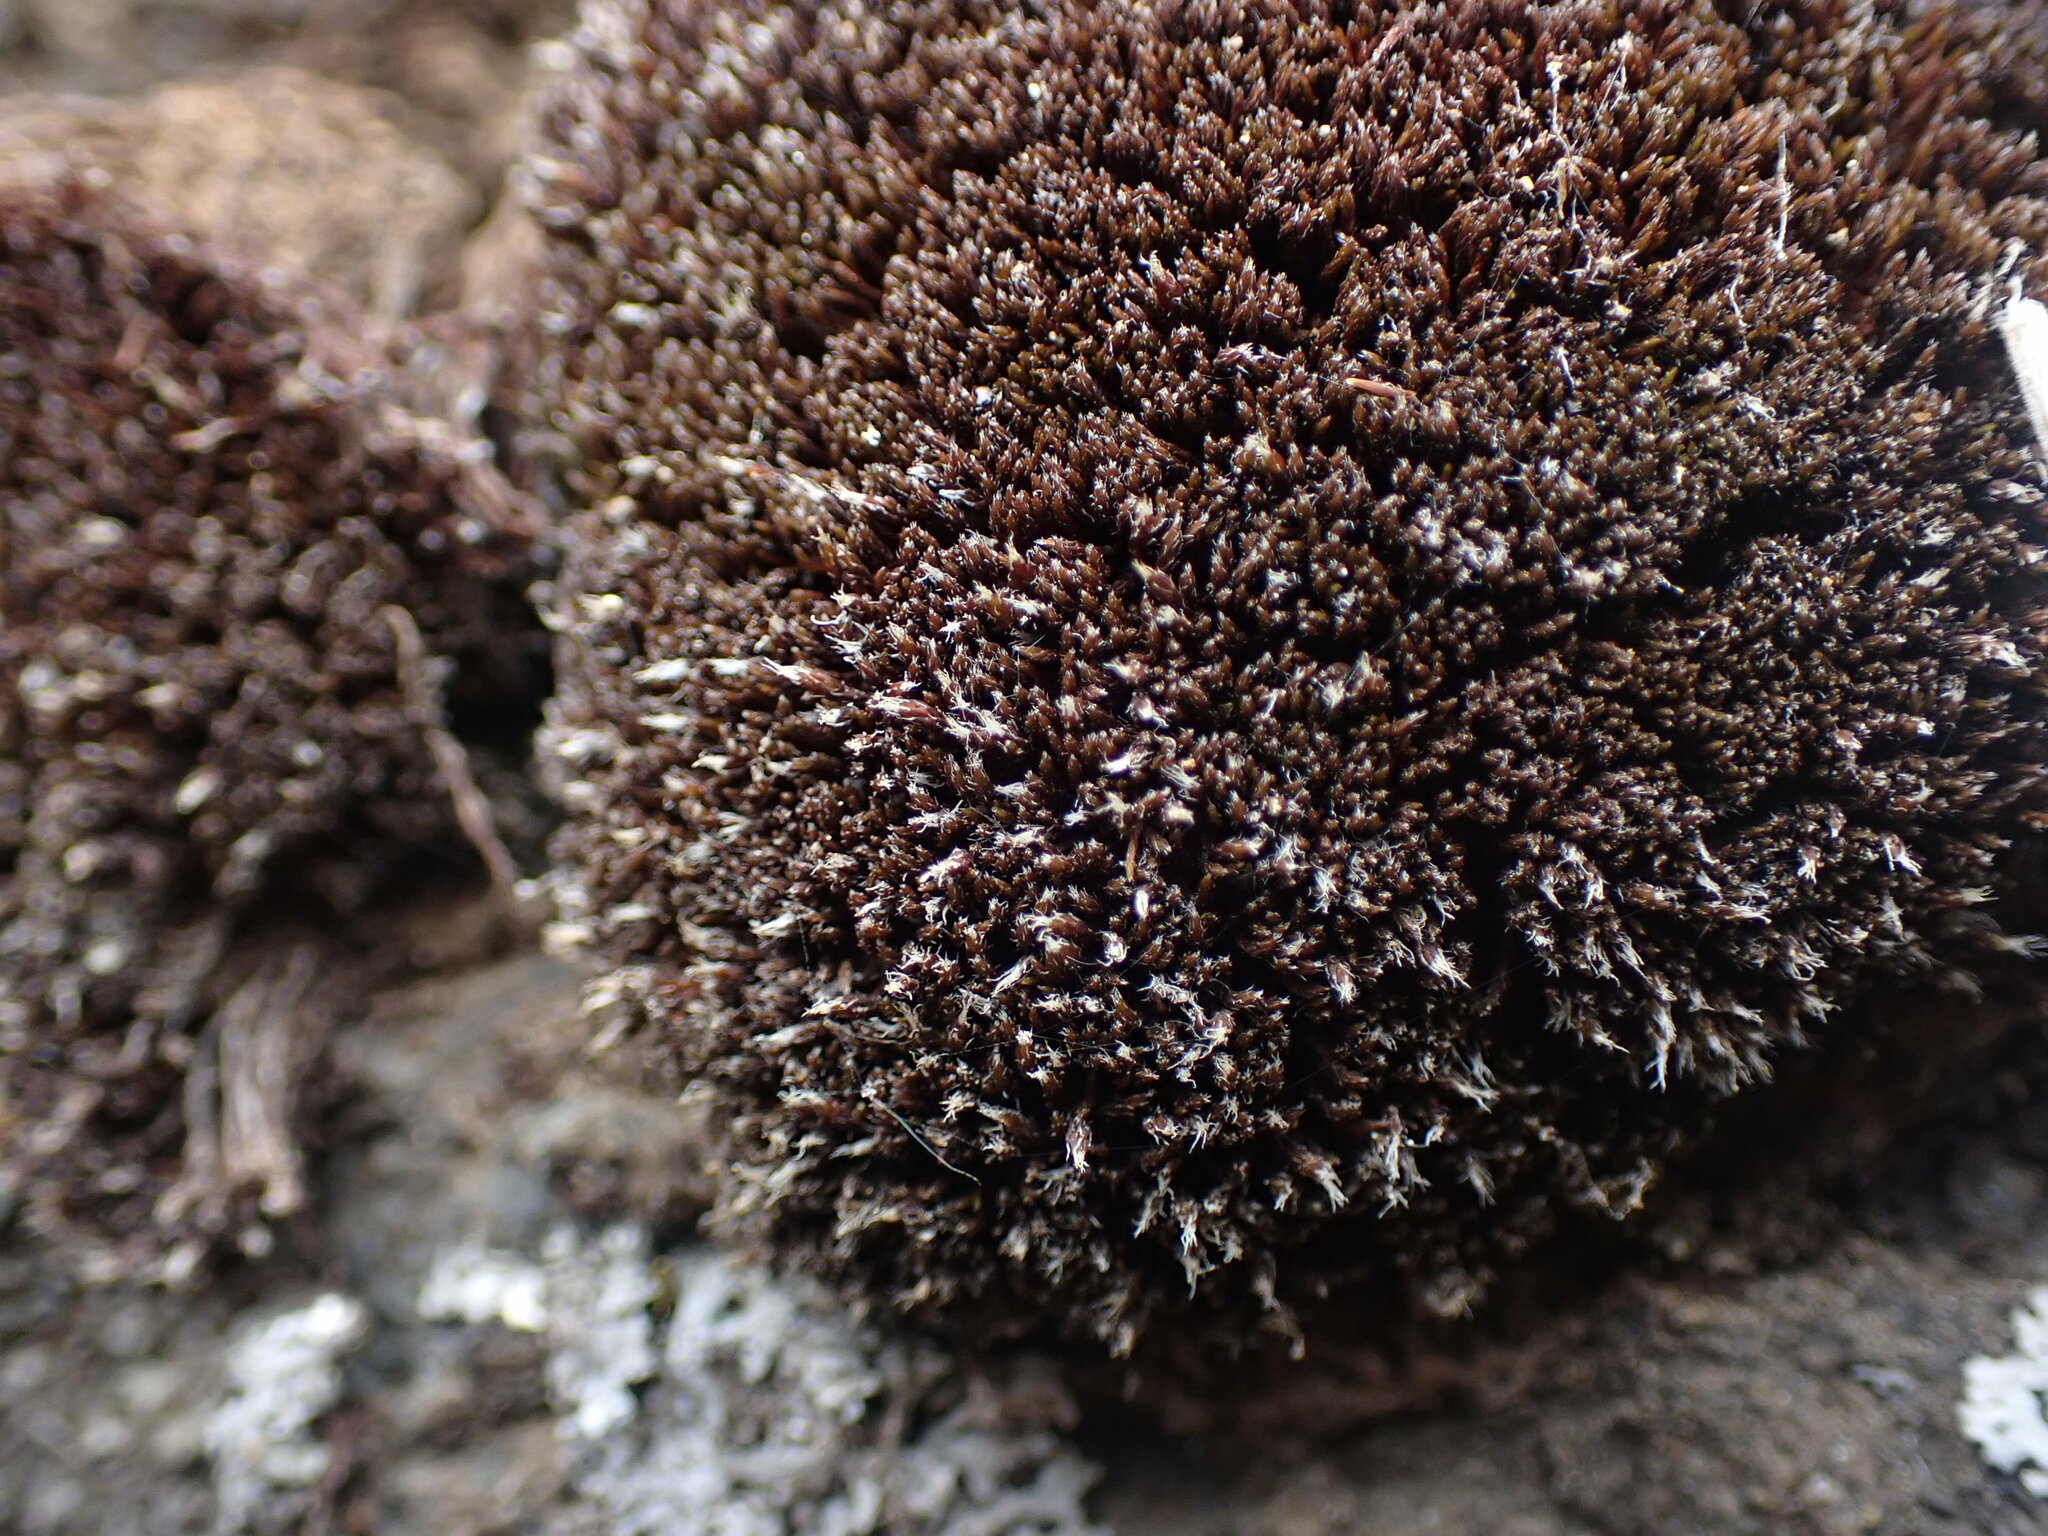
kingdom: Plantae
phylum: Bryophyta
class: Bryopsida
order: Grimmiales
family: Grimmiaceae
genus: Schistidium
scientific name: Schistidium tenerum
